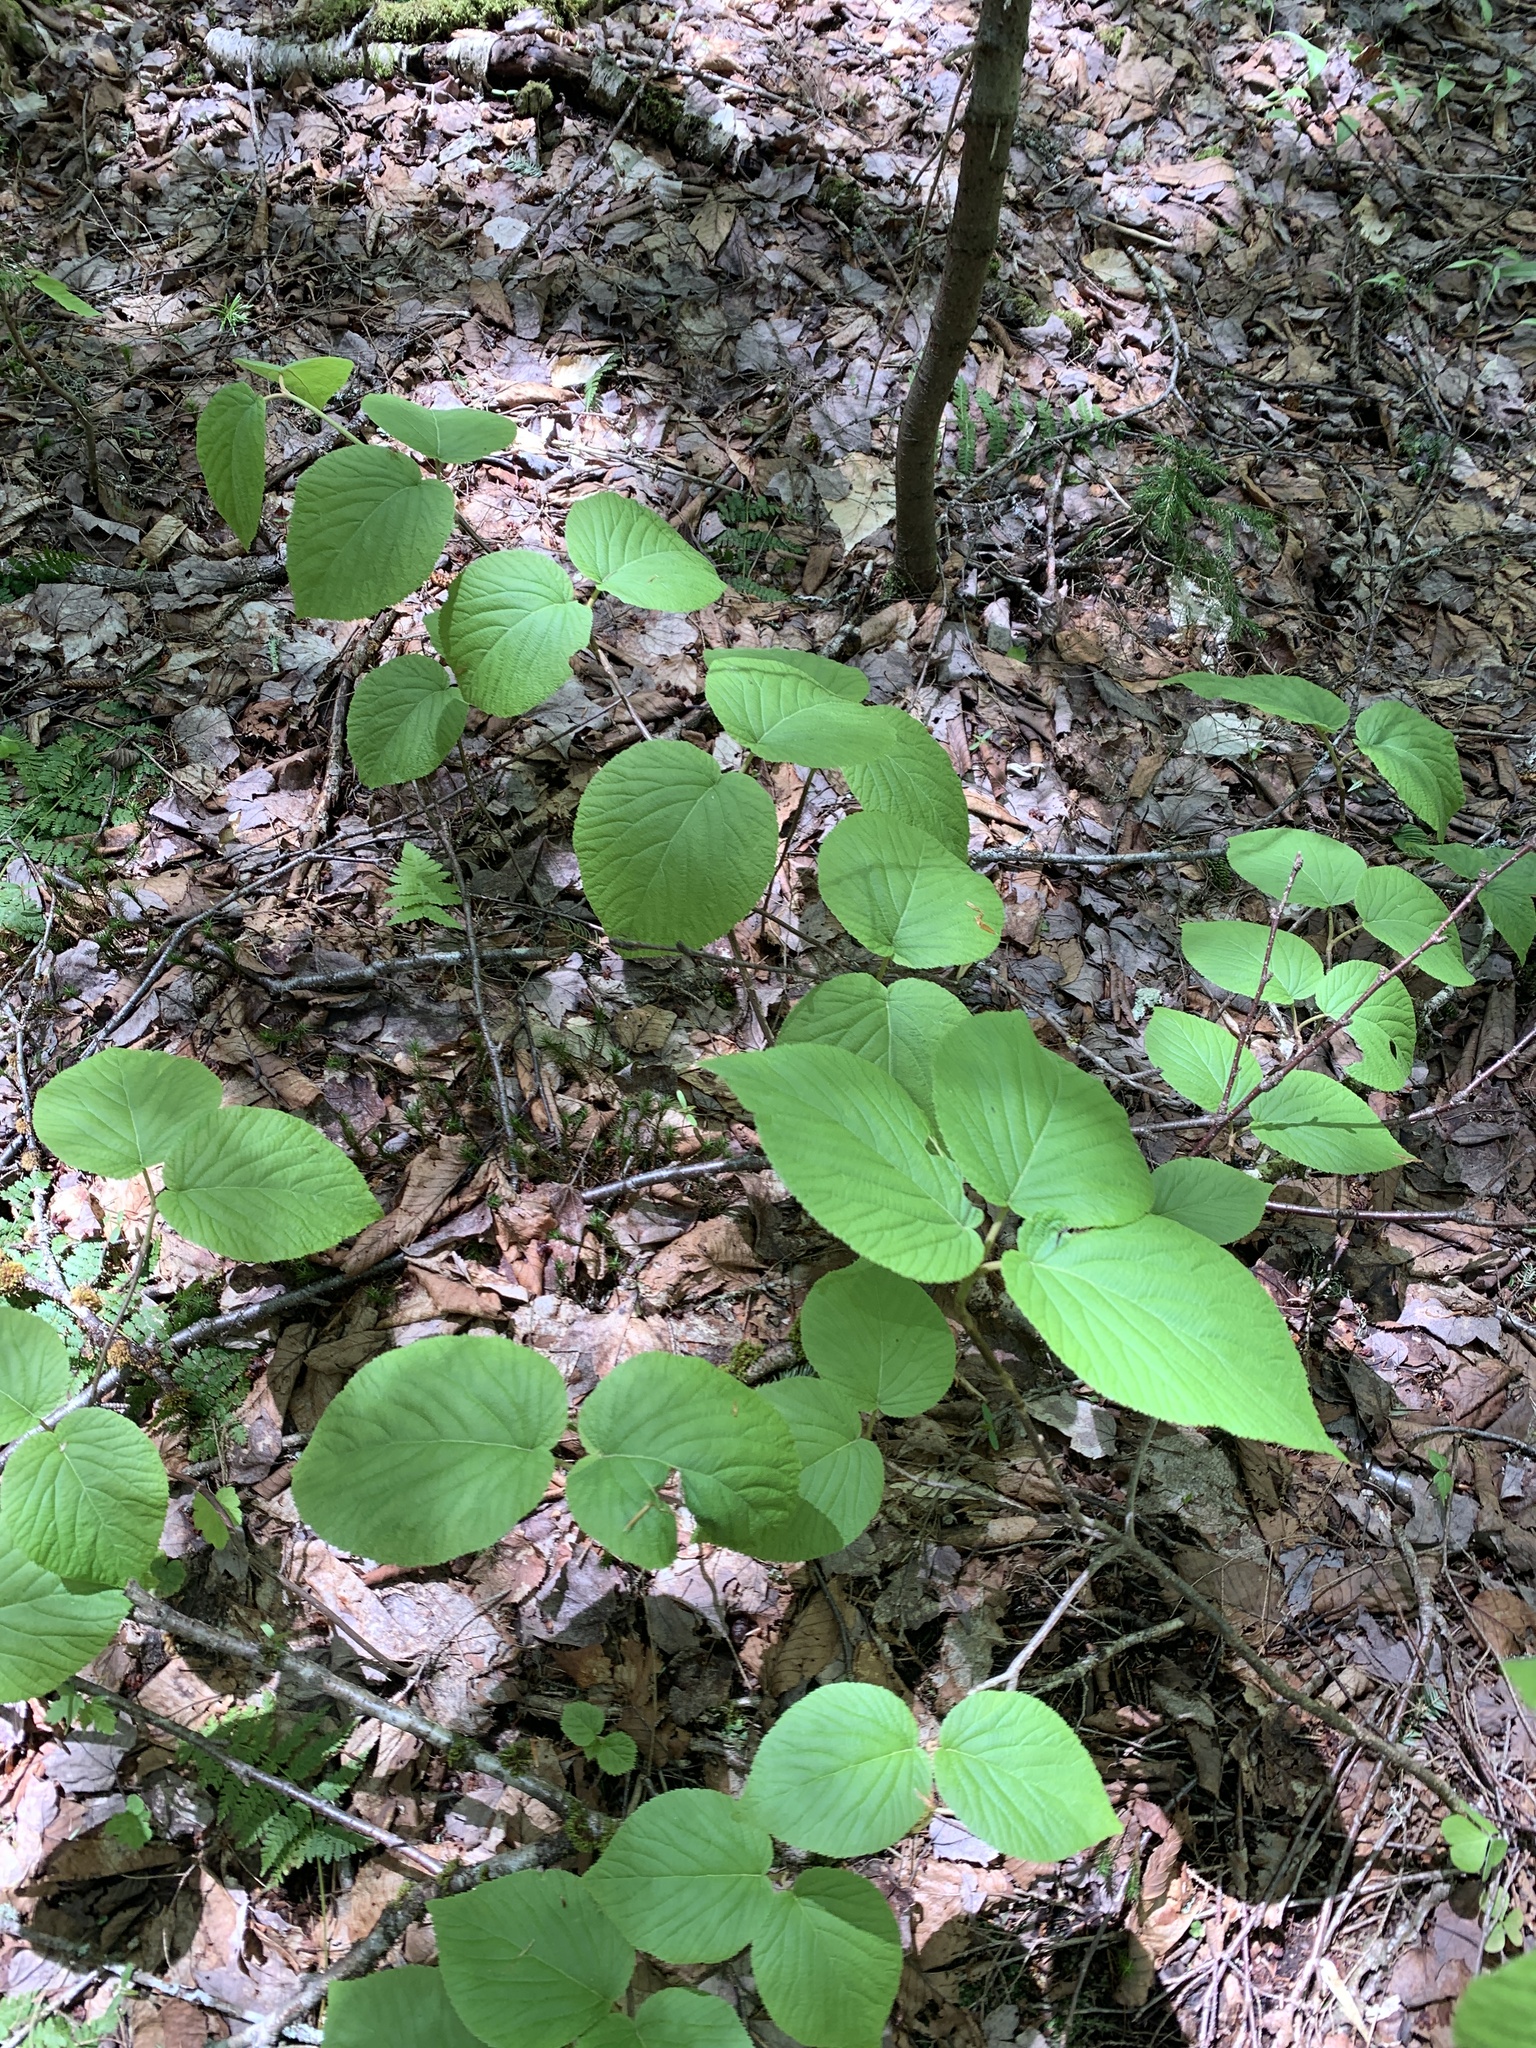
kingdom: Plantae
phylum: Tracheophyta
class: Magnoliopsida
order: Dipsacales
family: Viburnaceae
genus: Viburnum
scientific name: Viburnum lantanoides
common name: Hobblebush
